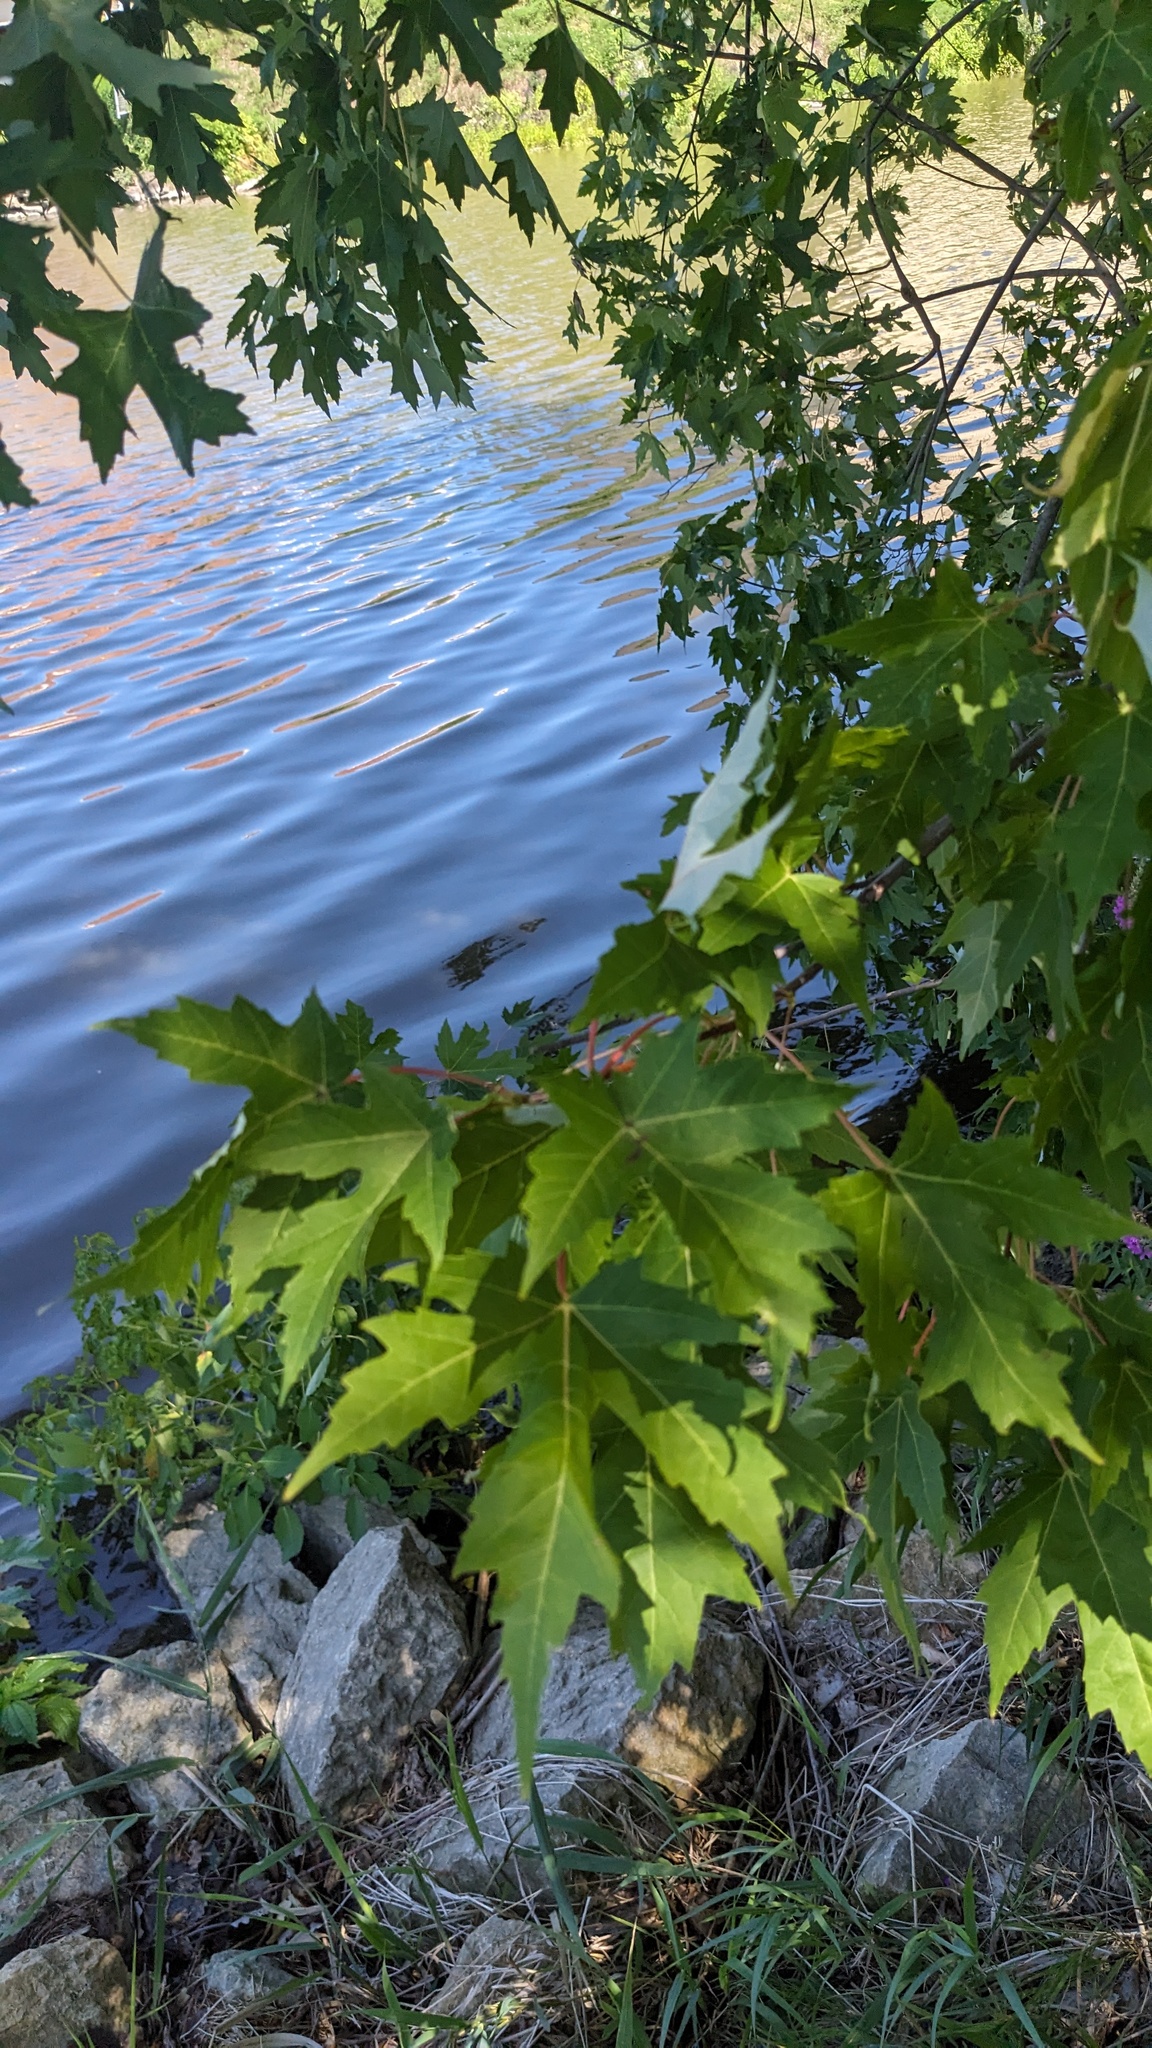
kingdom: Plantae
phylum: Tracheophyta
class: Magnoliopsida
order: Sapindales
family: Sapindaceae
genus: Acer
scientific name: Acer saccharinum
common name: Silver maple
